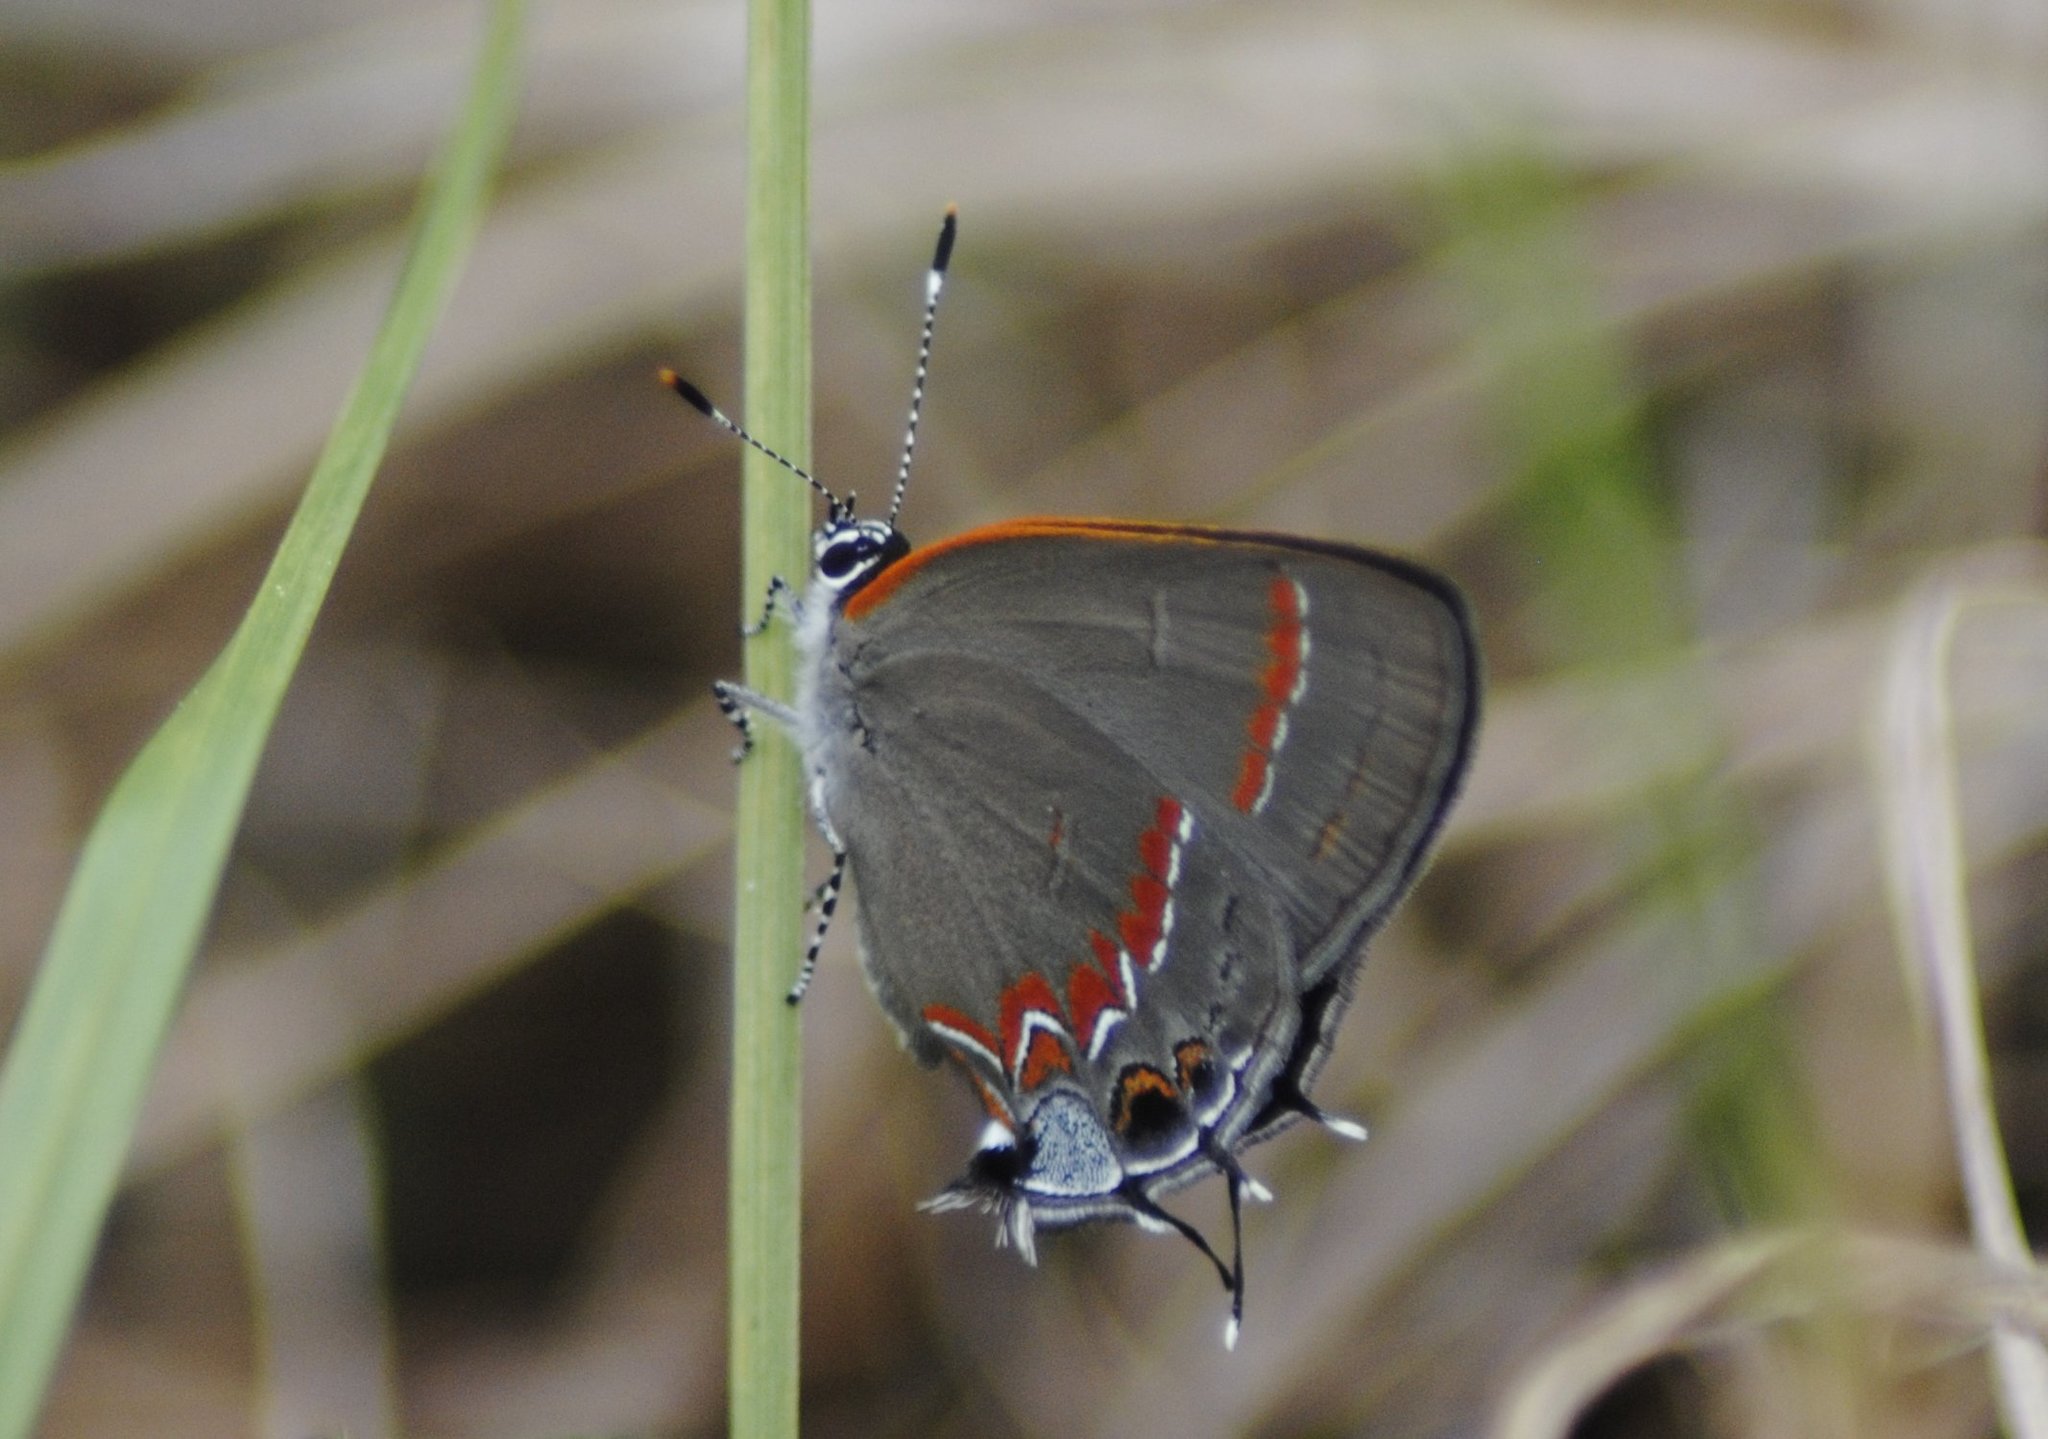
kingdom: Animalia
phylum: Arthropoda
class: Insecta
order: Lepidoptera
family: Lycaenidae
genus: Calycopis
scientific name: Calycopis cecrops
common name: Red-banded hairstreak
